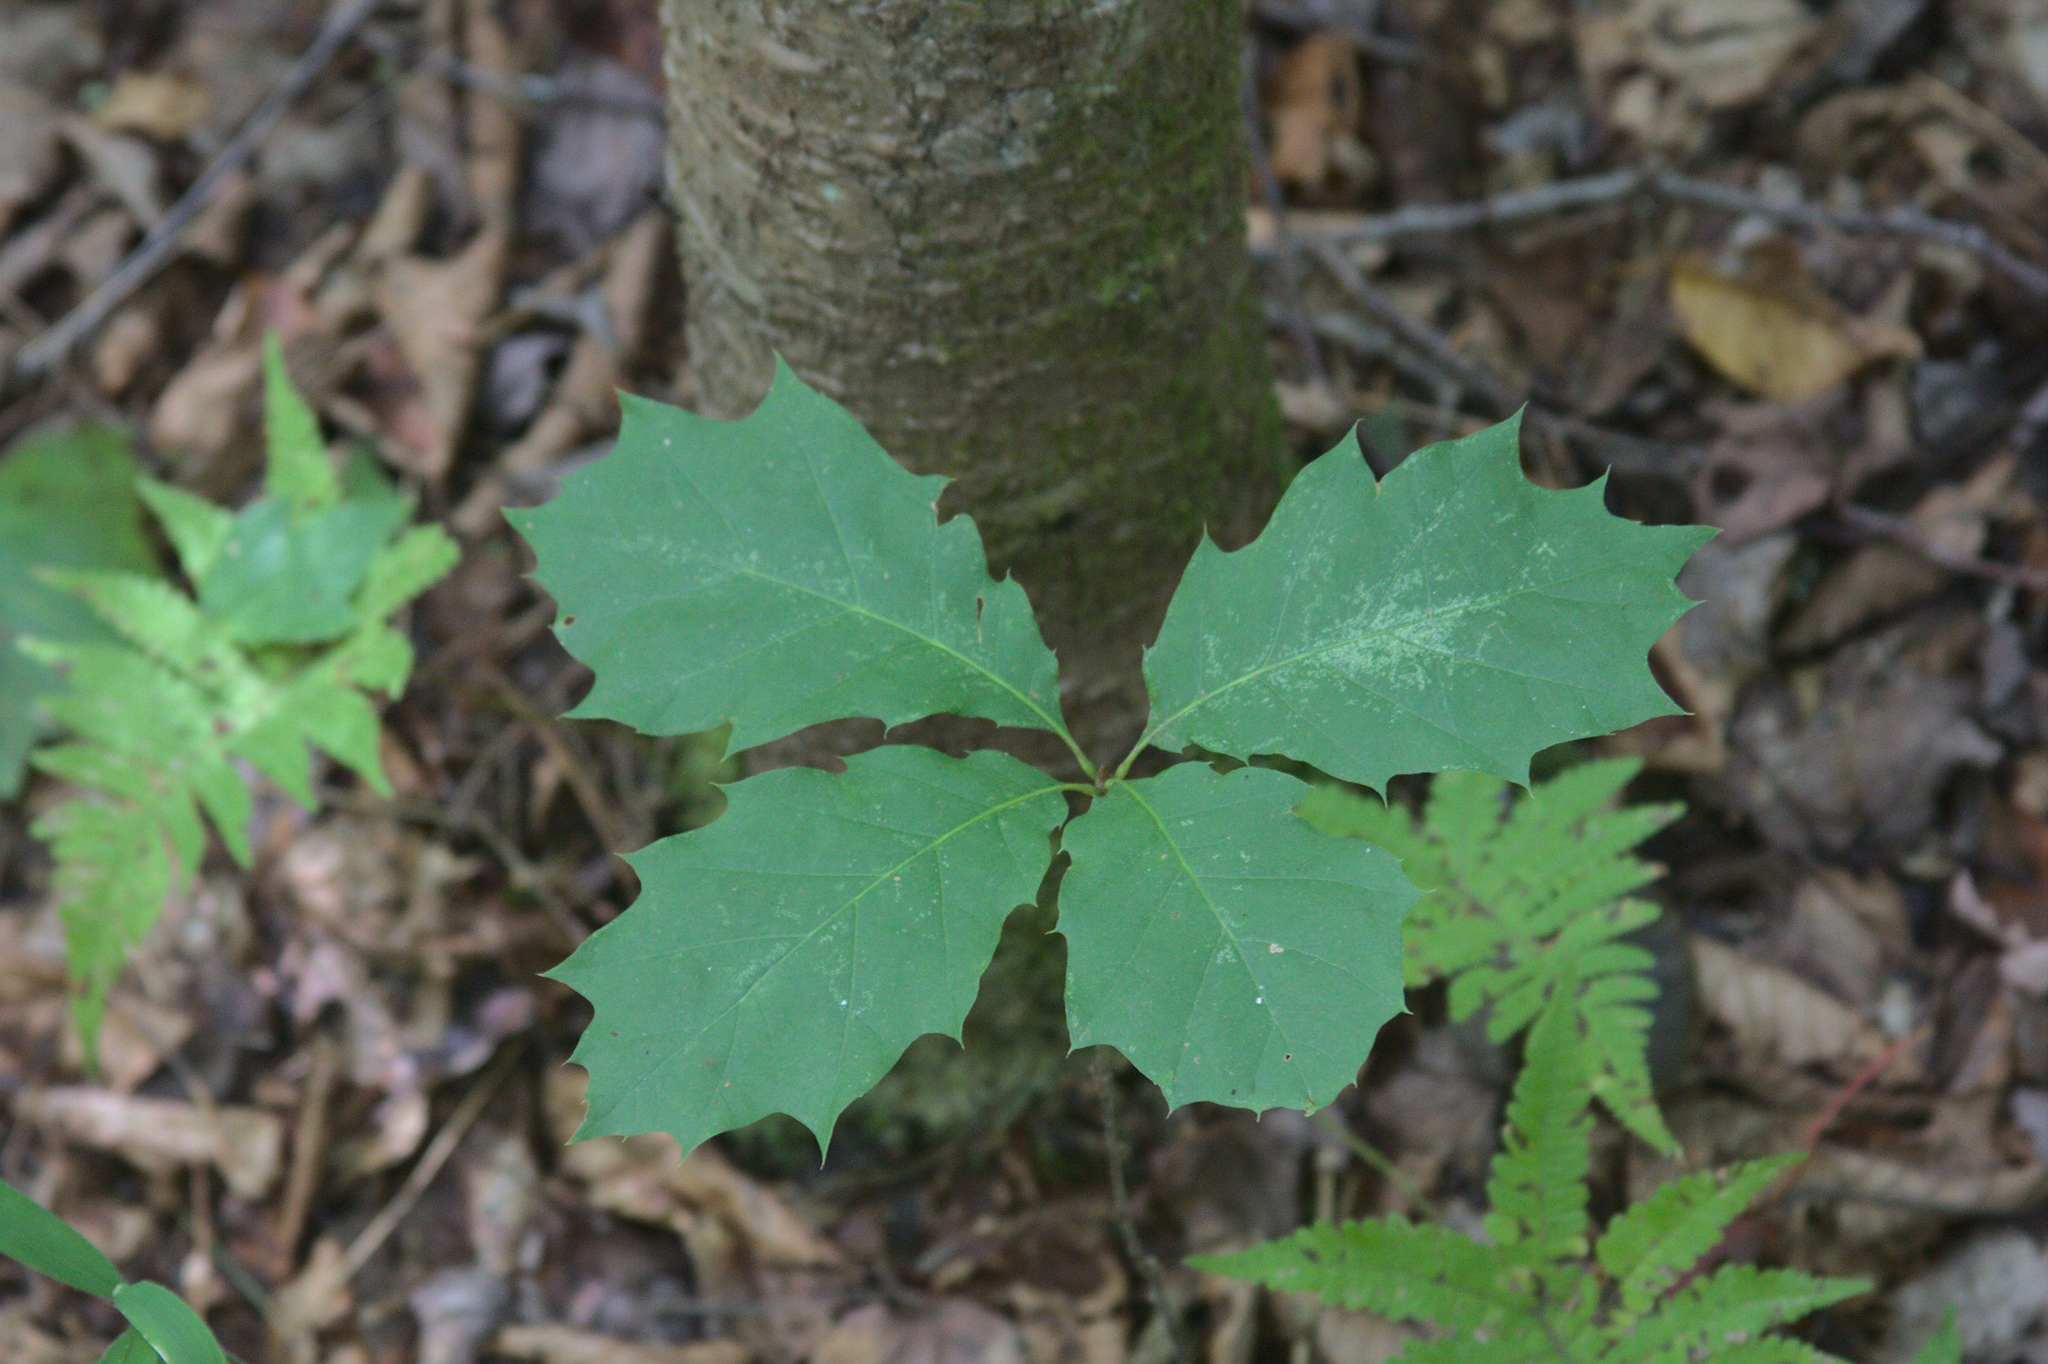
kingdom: Plantae
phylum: Tracheophyta
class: Magnoliopsida
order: Fagales
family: Fagaceae
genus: Quercus
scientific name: Quercus rubra
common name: Red oak
